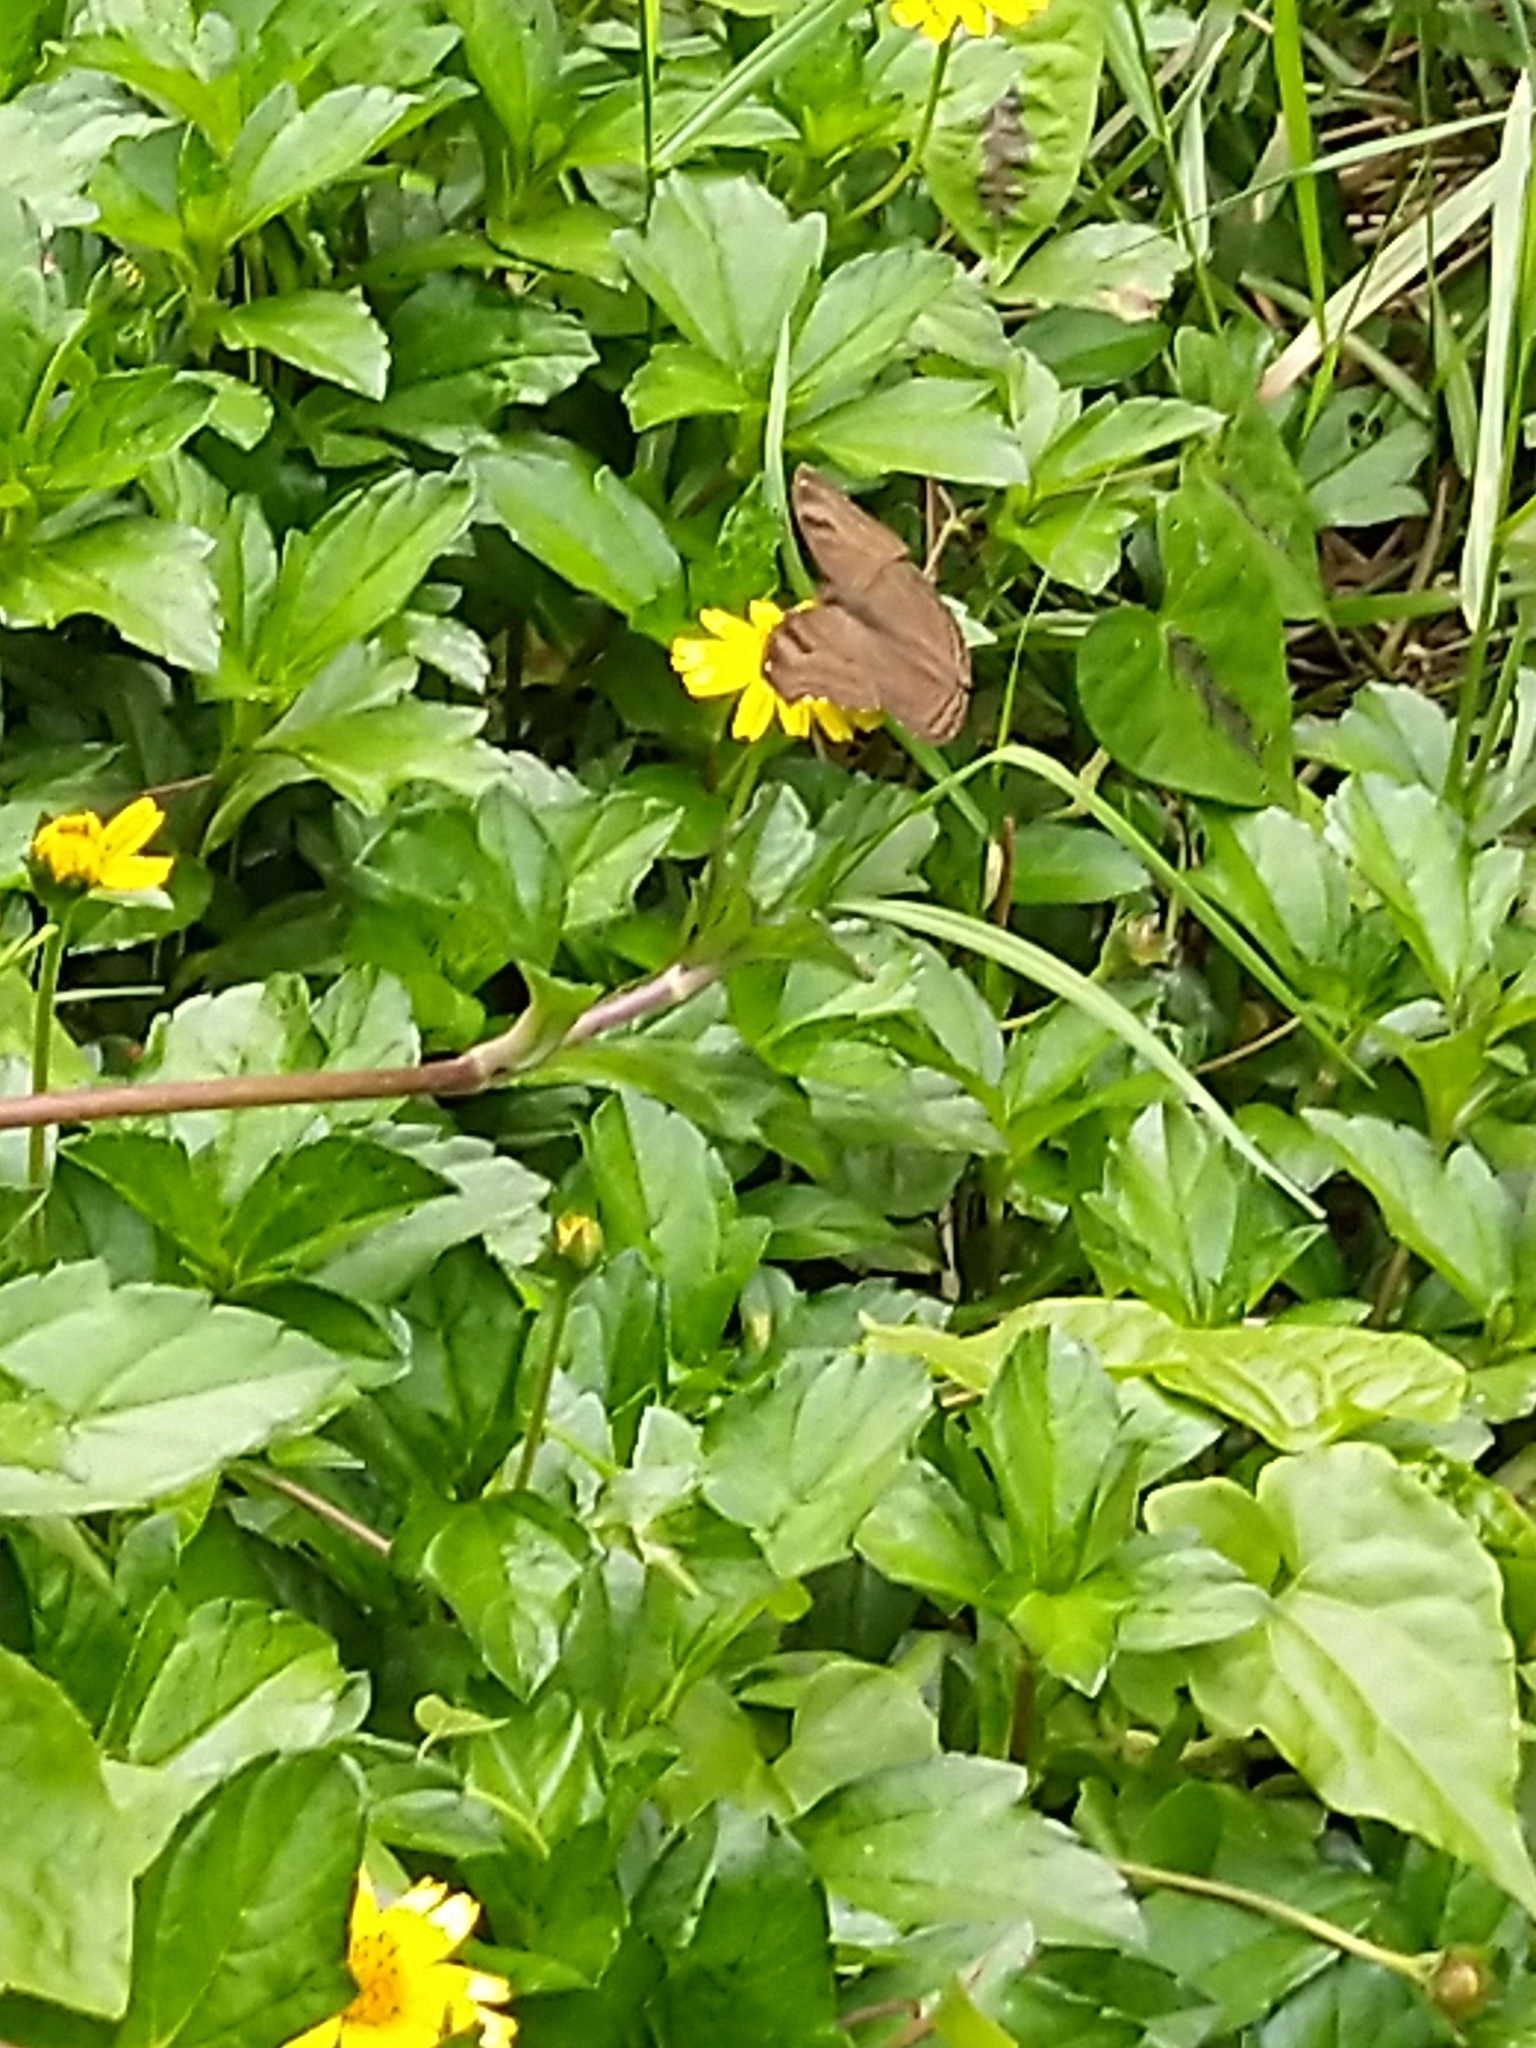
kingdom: Animalia
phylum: Arthropoda
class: Insecta
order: Lepidoptera
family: Nymphalidae
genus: Junonia
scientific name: Junonia iphita
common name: Chocolate pansy
